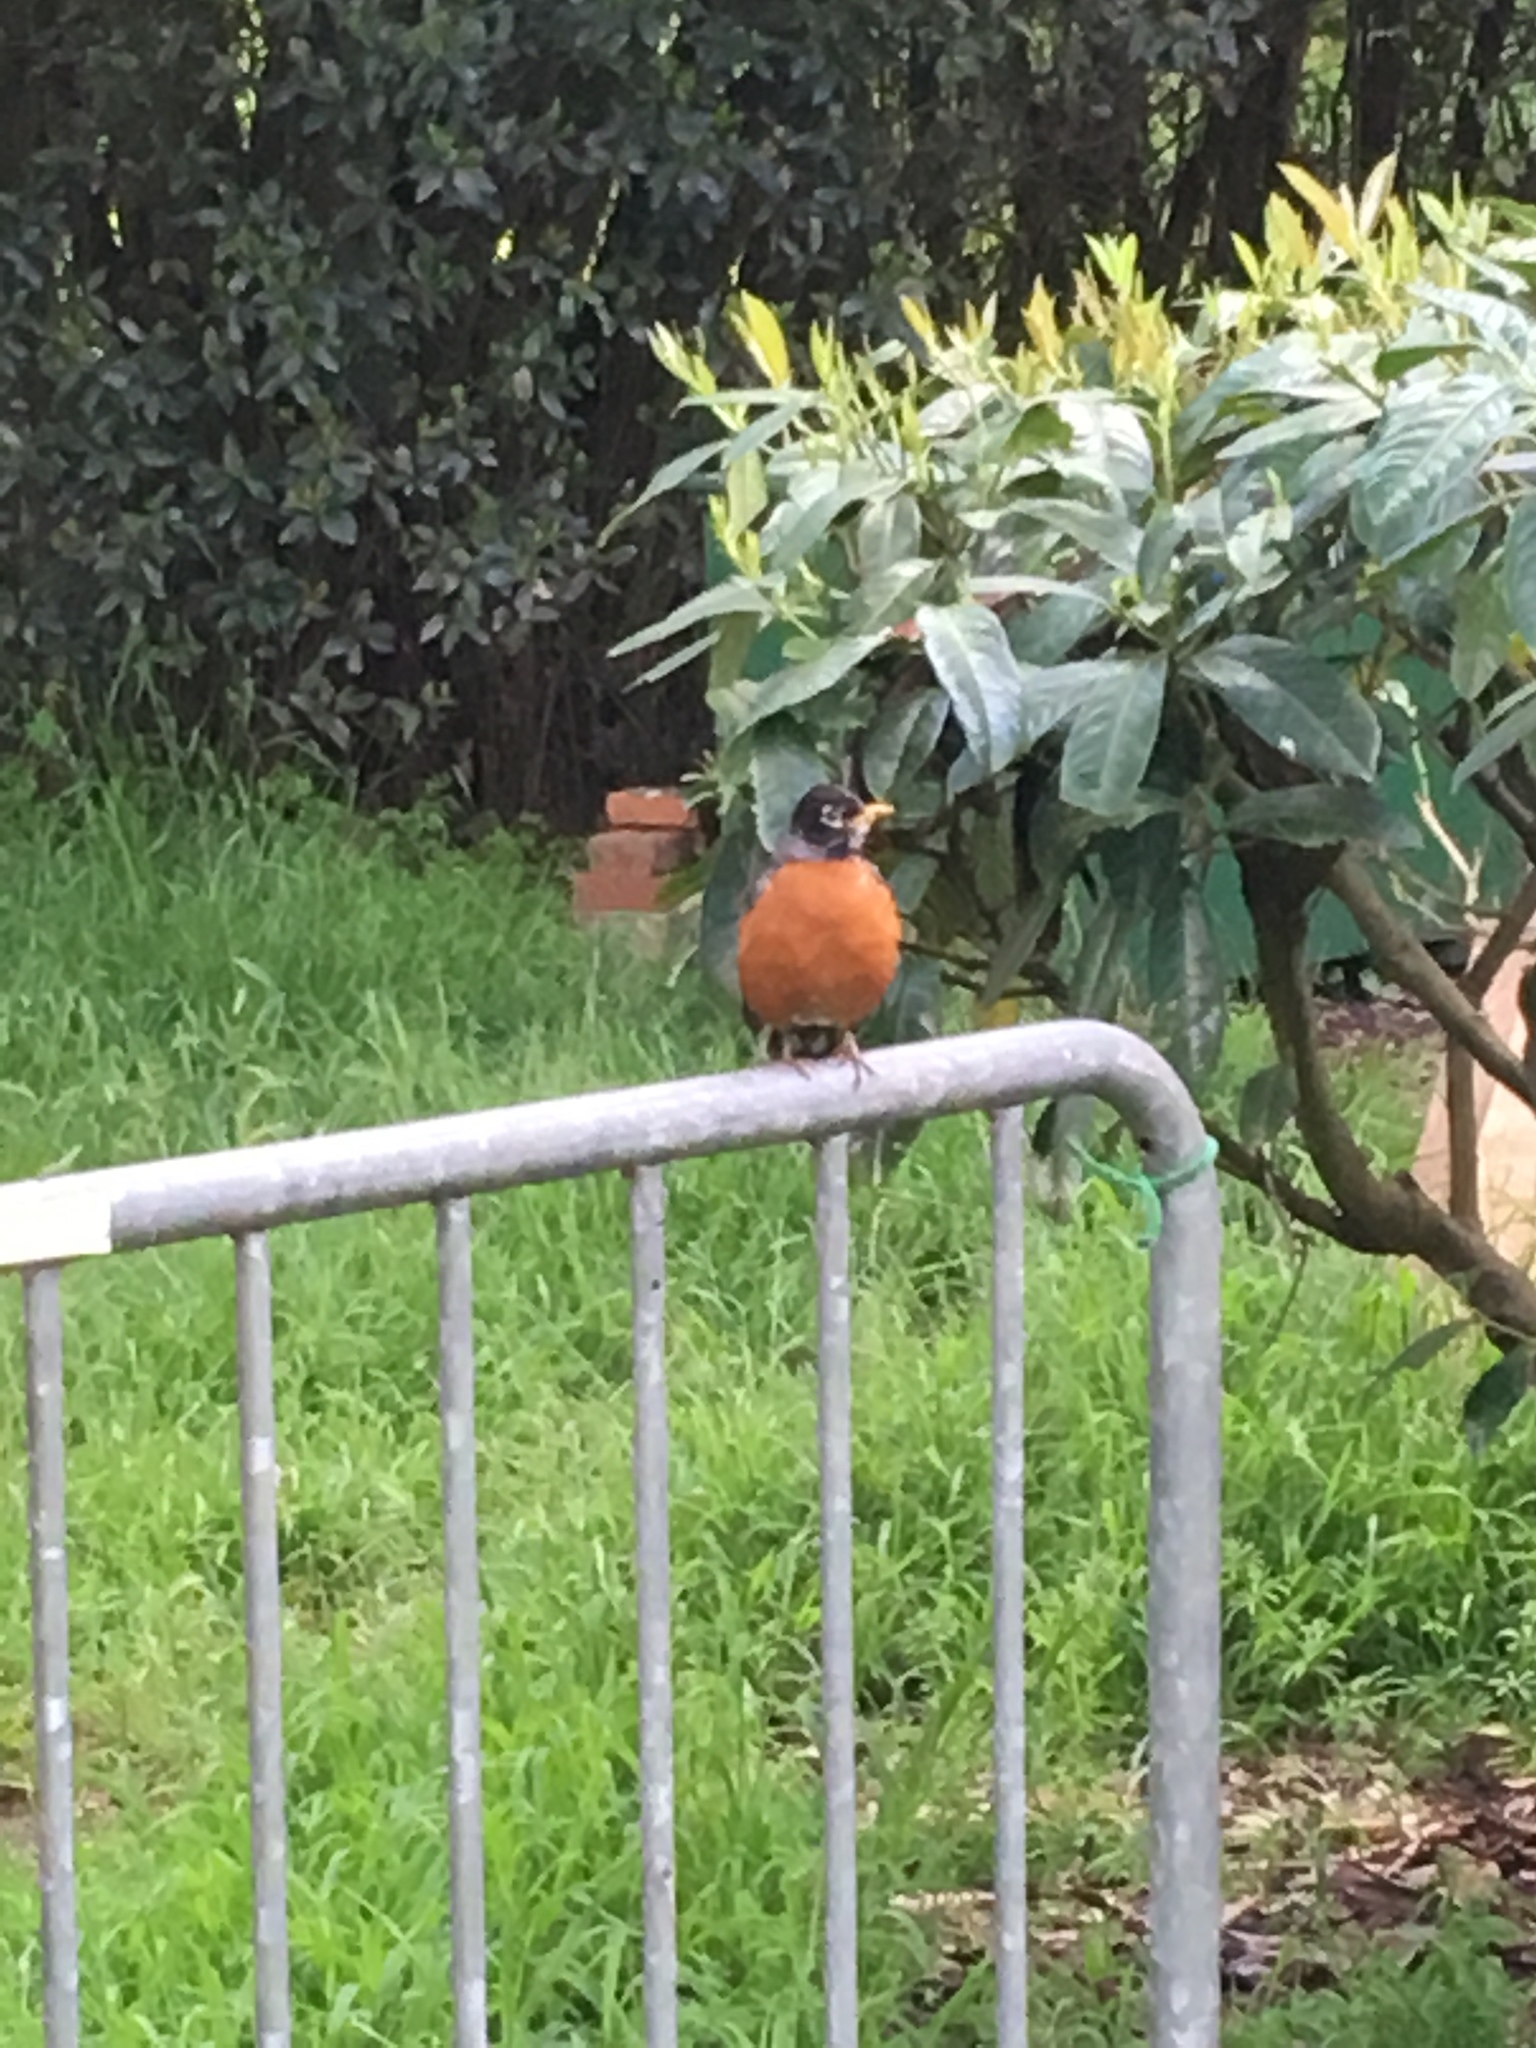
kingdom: Animalia
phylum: Chordata
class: Aves
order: Passeriformes
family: Turdidae
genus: Turdus
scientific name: Turdus migratorius
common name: American robin
